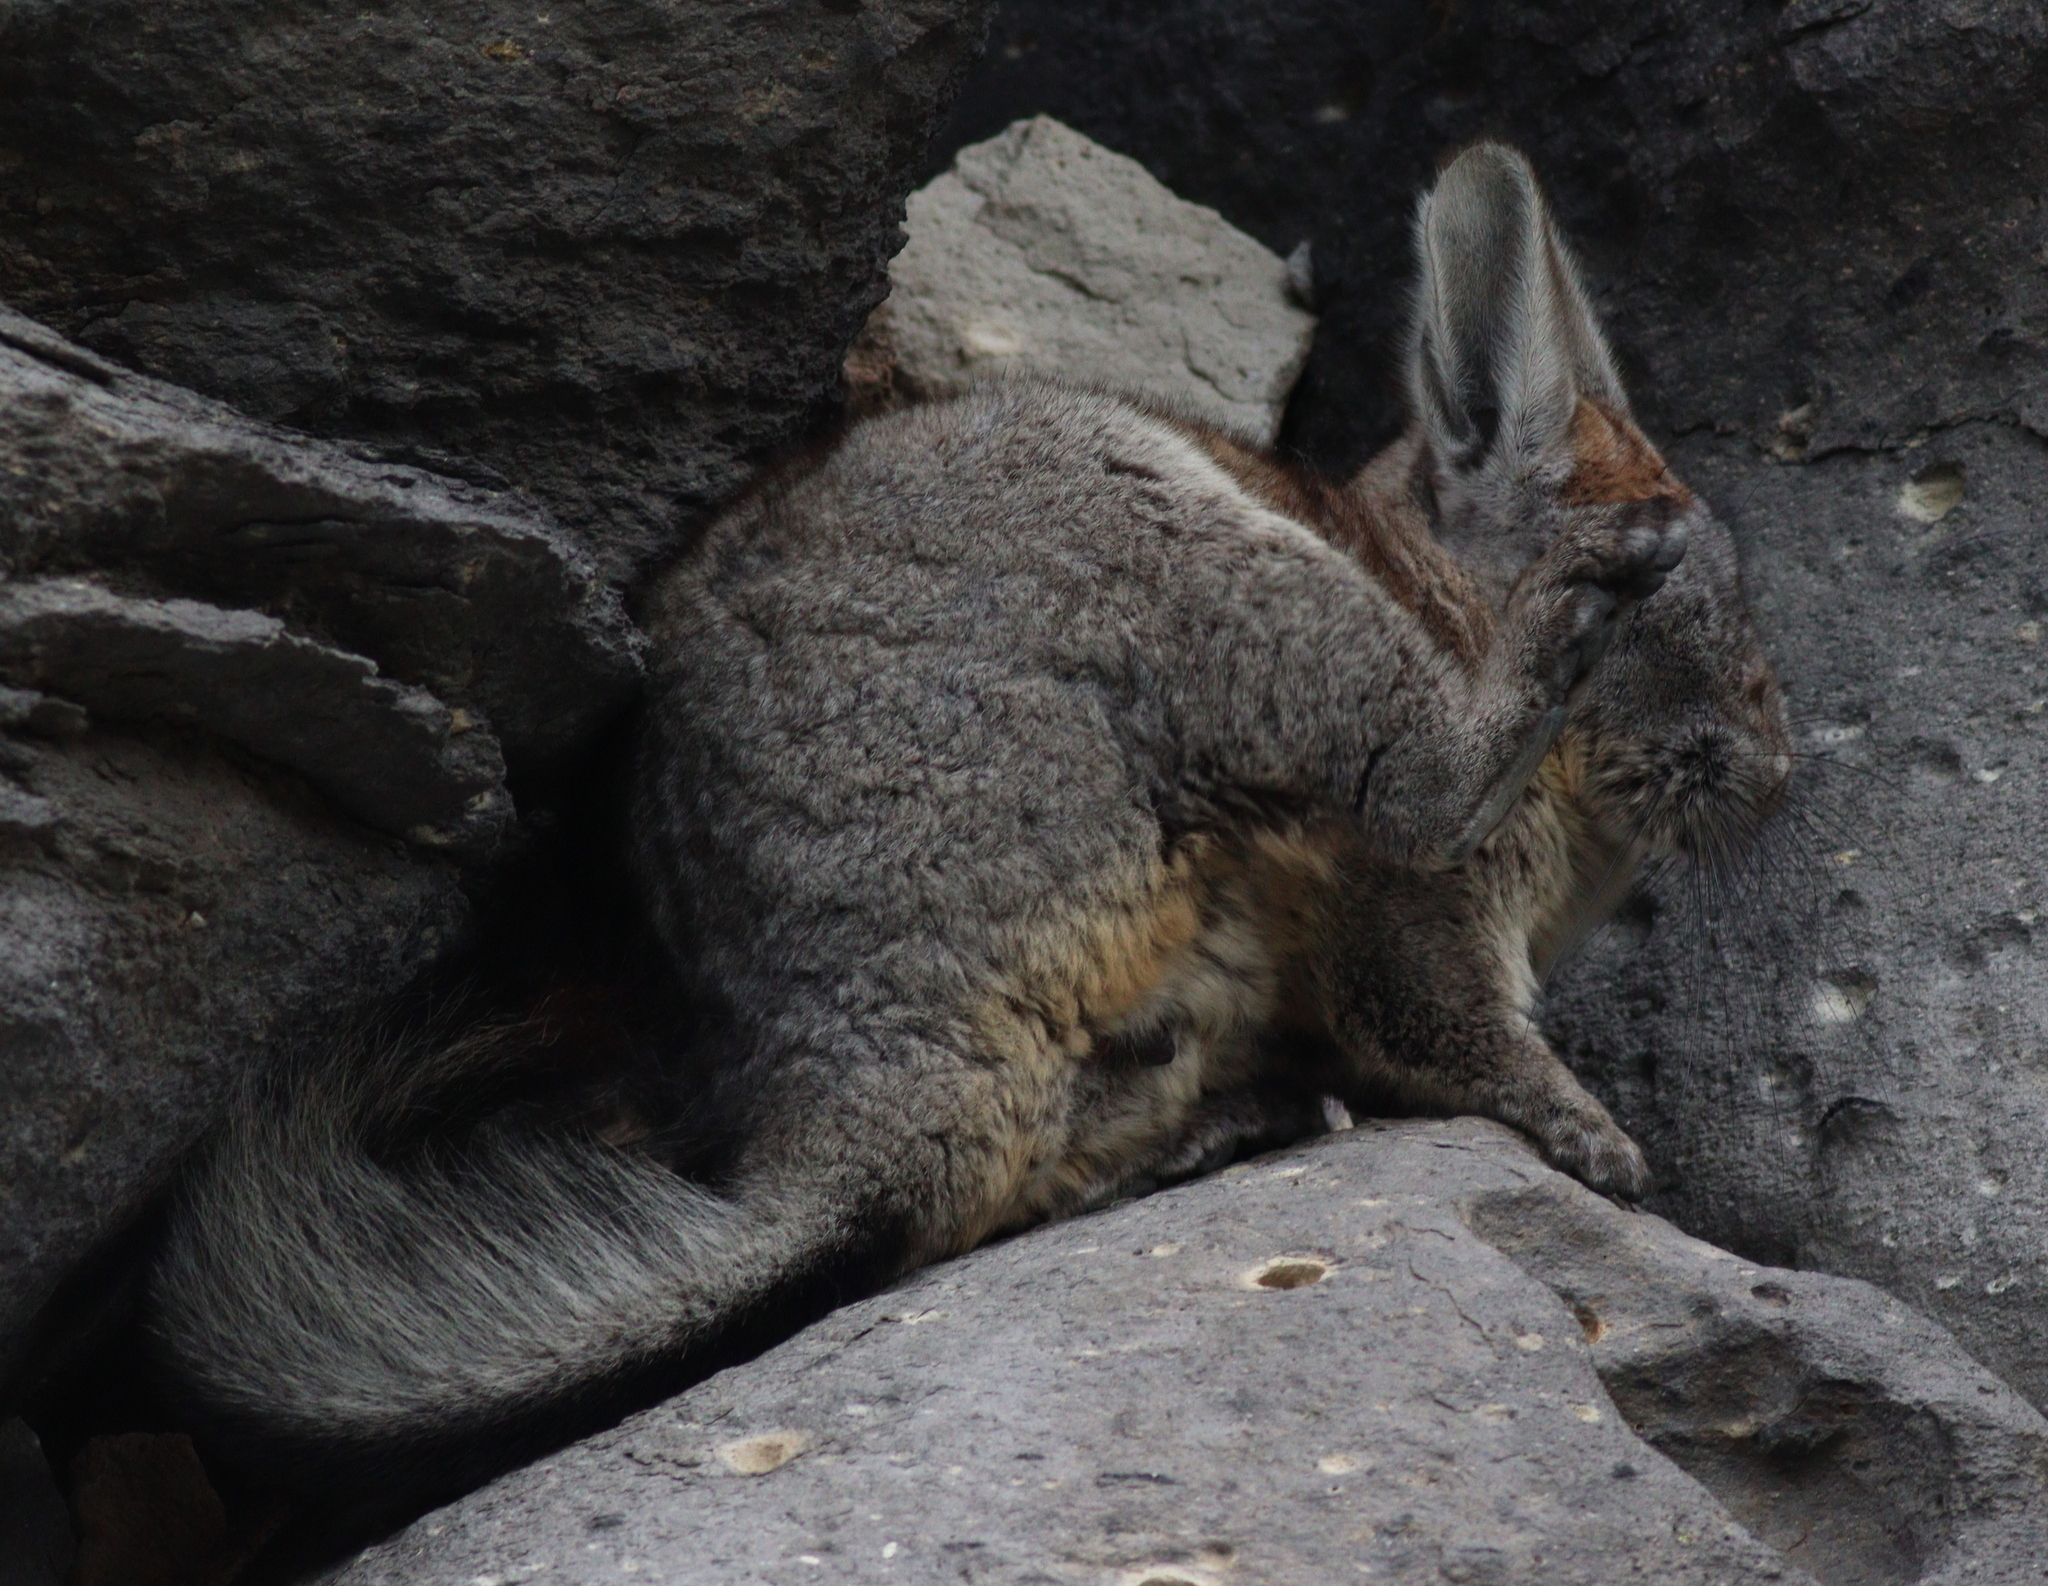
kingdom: Animalia
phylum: Chordata
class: Mammalia
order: Rodentia
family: Chinchillidae
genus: Lagidium
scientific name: Lagidium viscacia
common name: Southern viscacha
